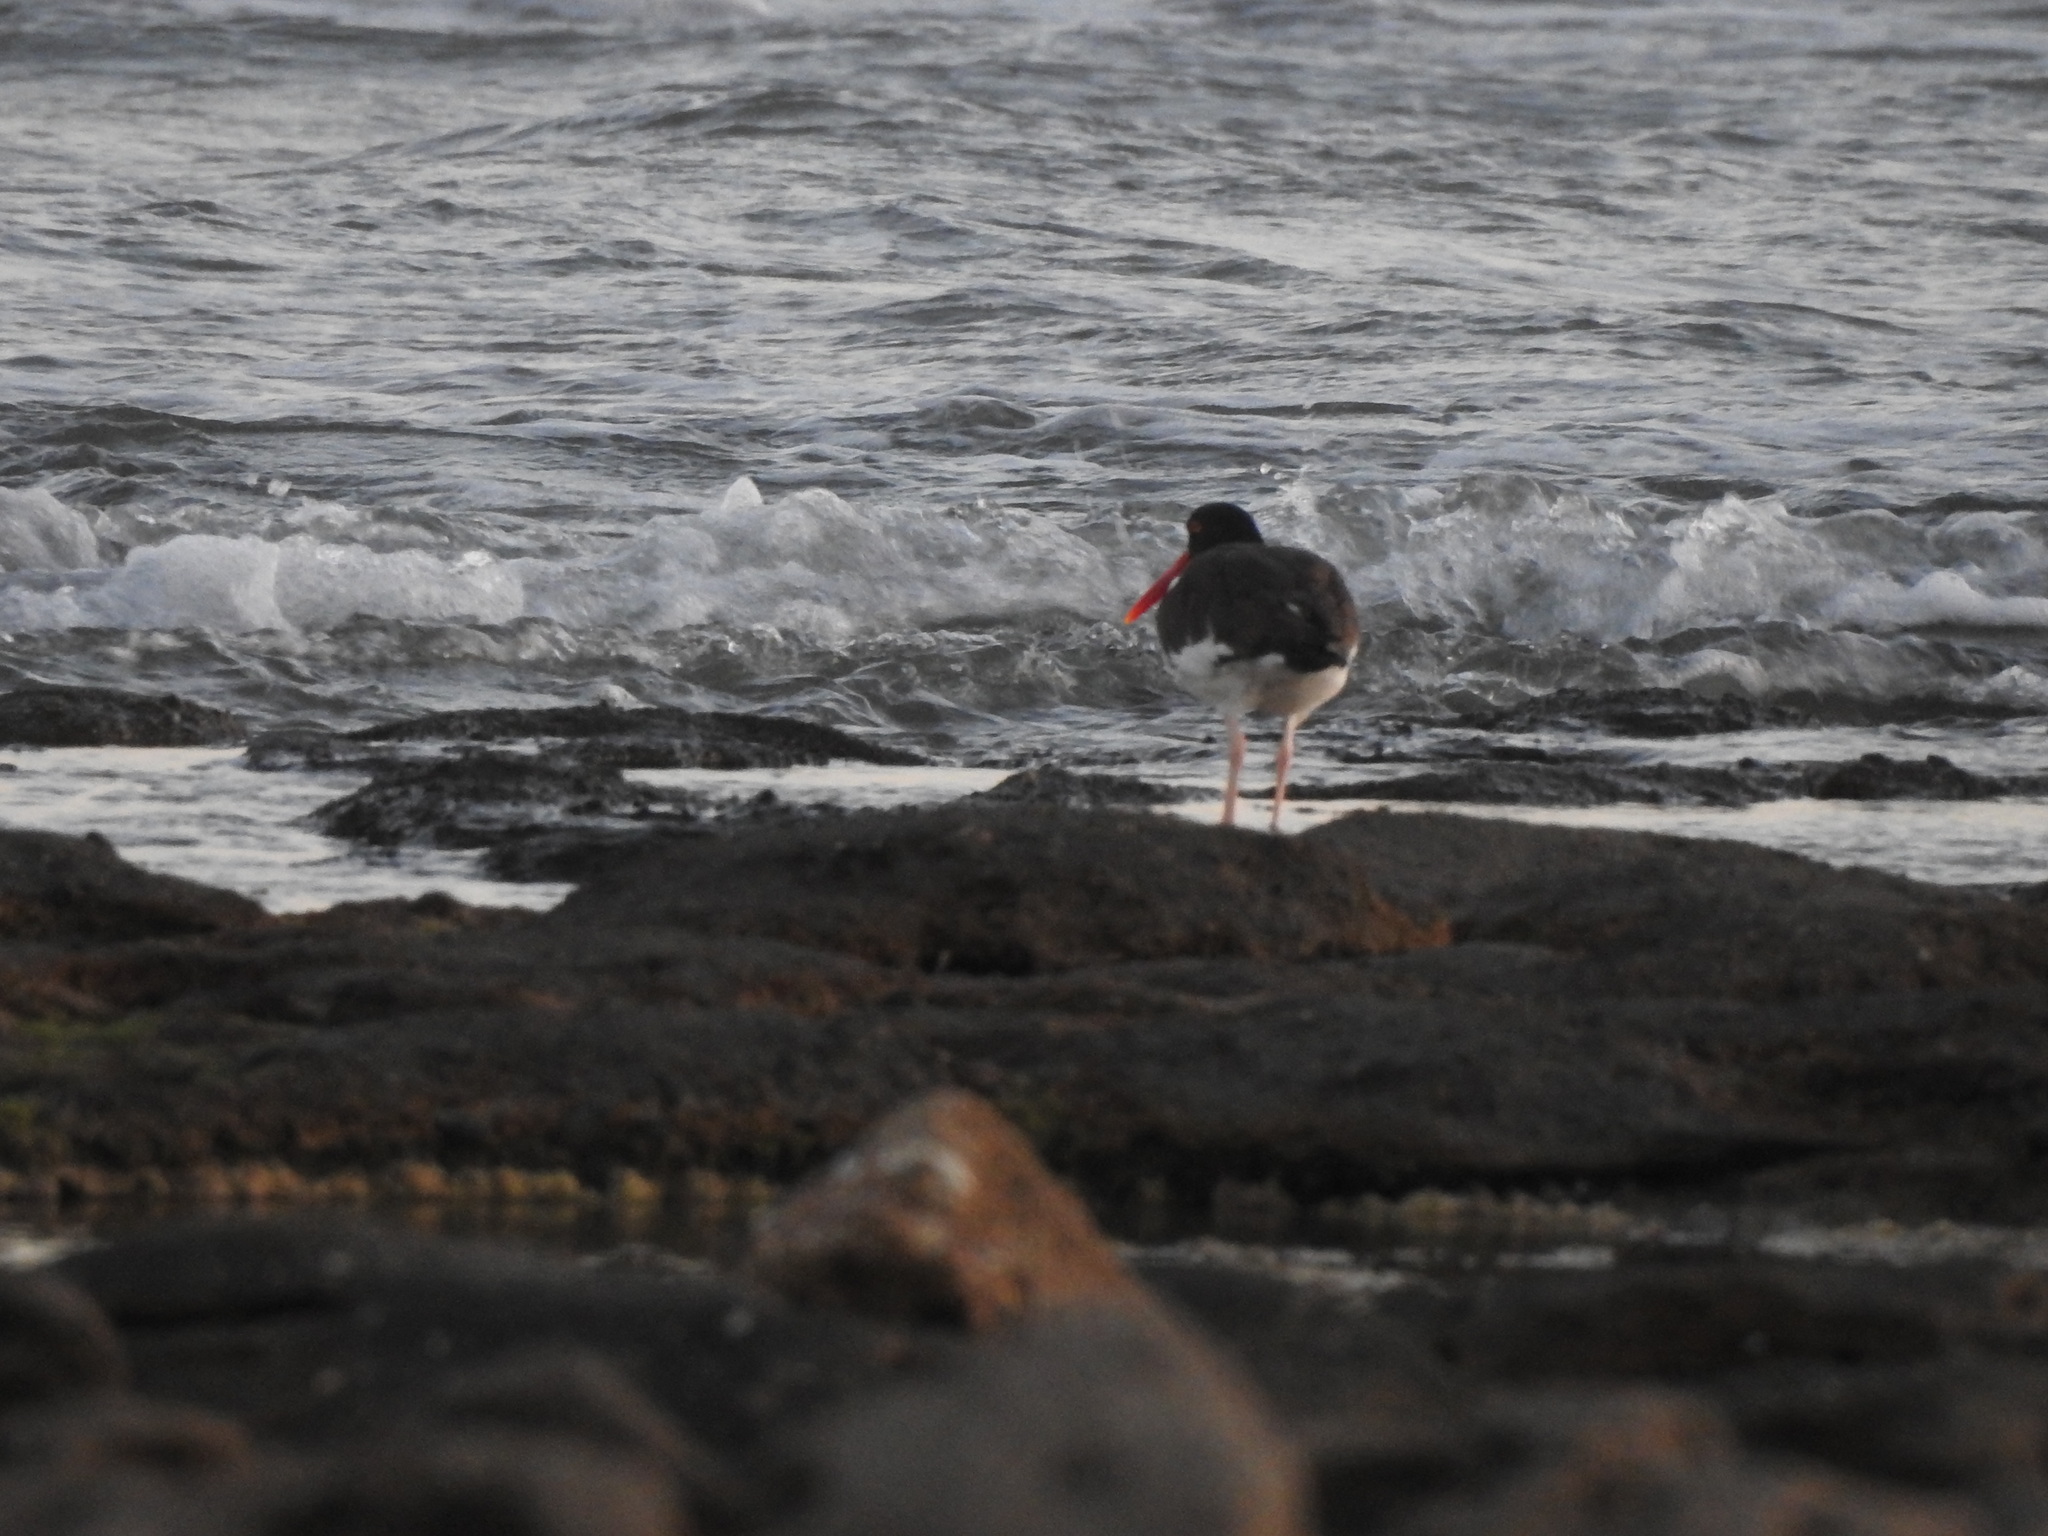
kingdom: Animalia
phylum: Chordata
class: Aves
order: Charadriiformes
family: Haematopodidae
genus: Haematopus
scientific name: Haematopus palliatus
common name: American oystercatcher
